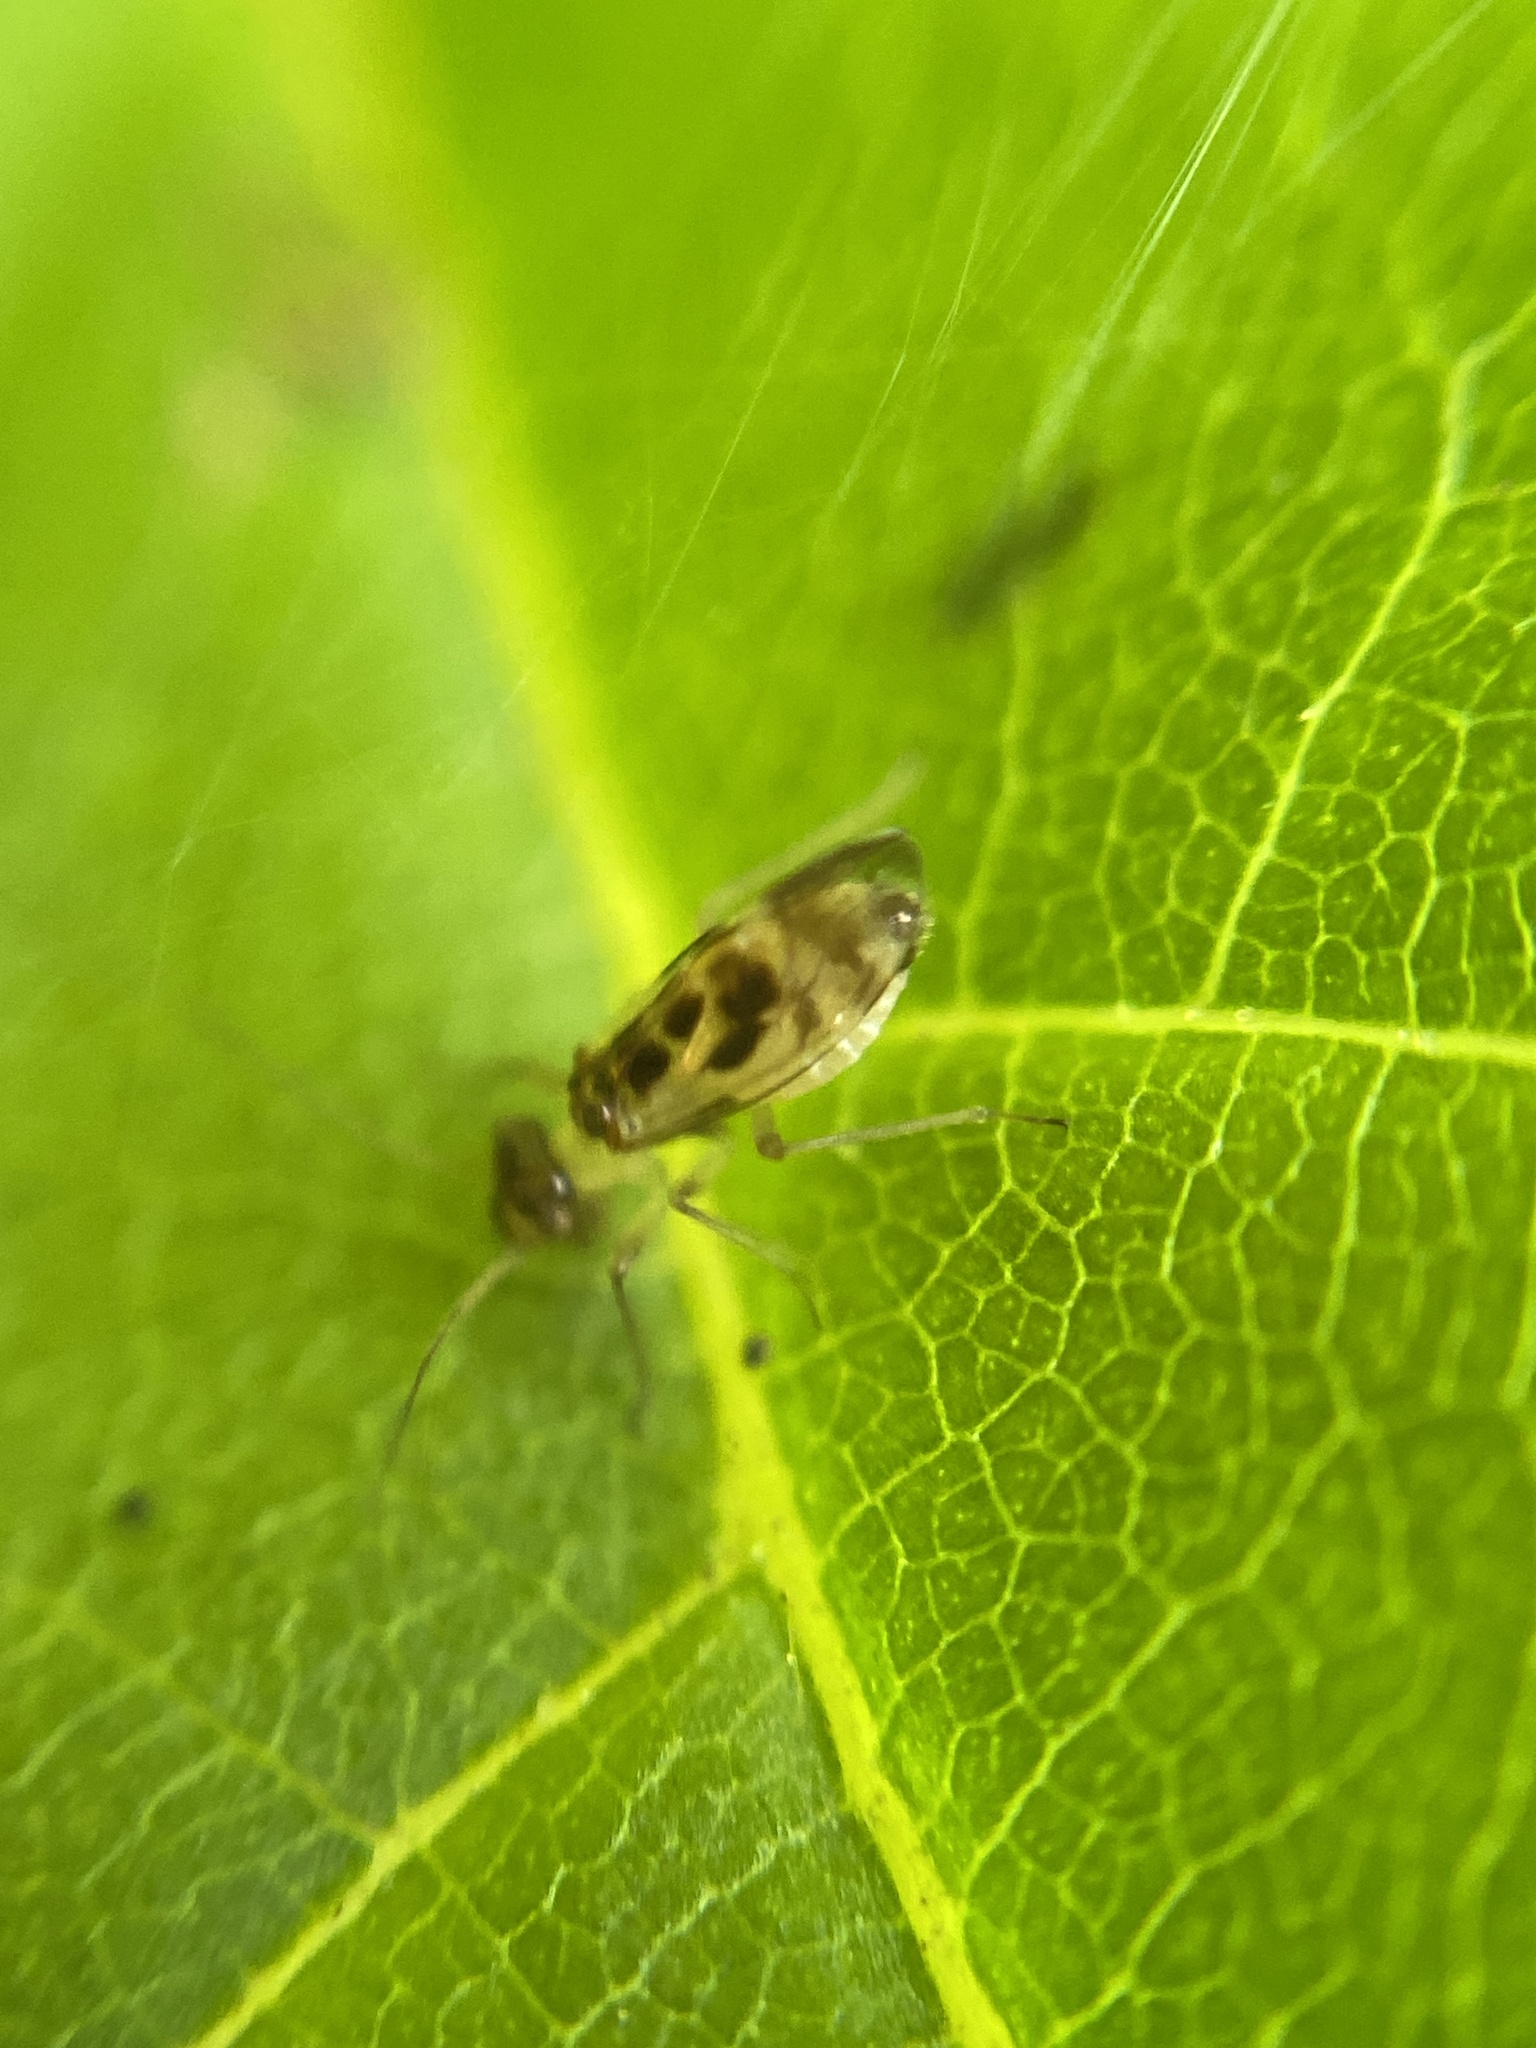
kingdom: Animalia
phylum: Arthropoda
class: Insecta
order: Psocodea
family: Stenopsocidae
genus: Graphopsocus
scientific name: Graphopsocus cruciatus
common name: Lizard bark louse
